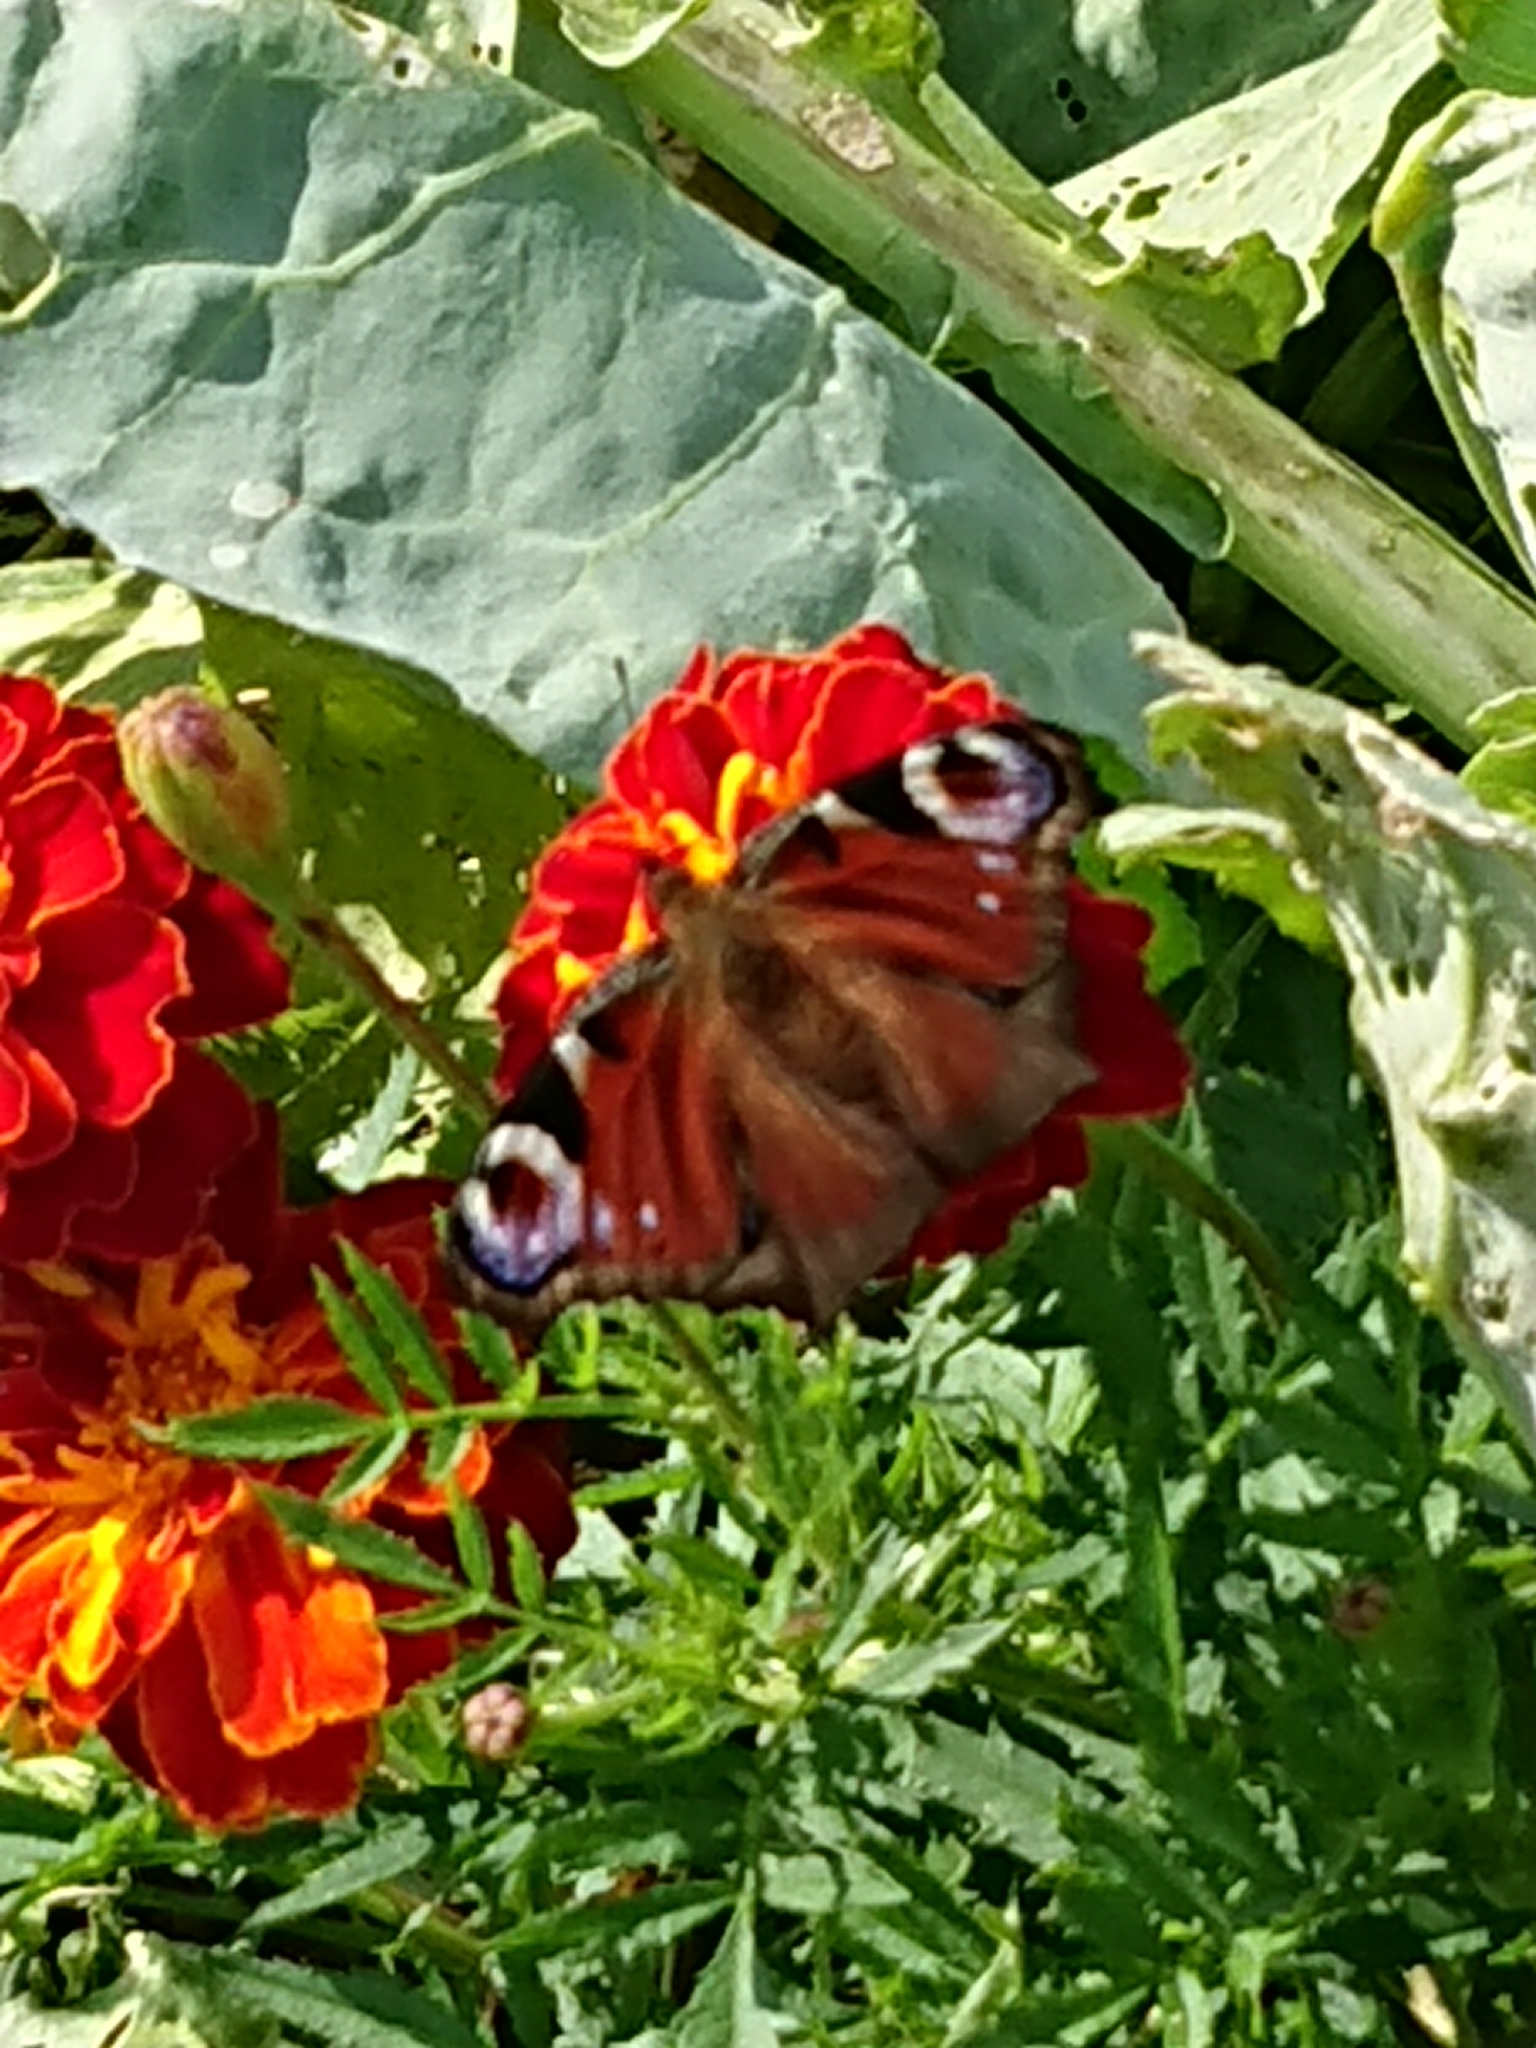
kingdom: Animalia
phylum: Arthropoda
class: Insecta
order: Lepidoptera
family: Nymphalidae
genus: Aglais
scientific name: Aglais io
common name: Peacock
